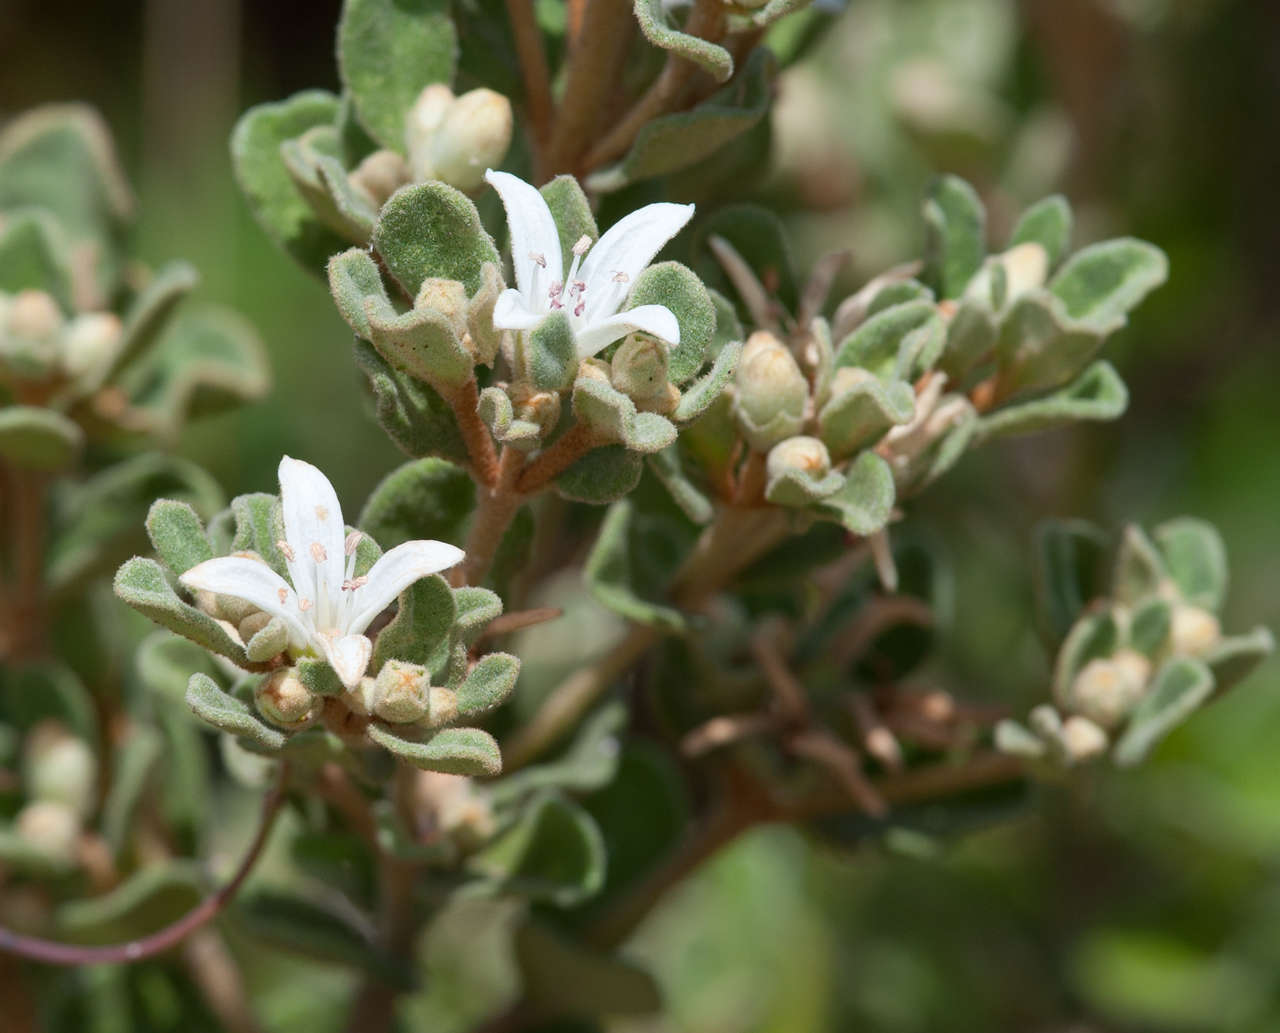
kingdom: Plantae
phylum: Tracheophyta
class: Magnoliopsida
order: Sapindales
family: Rutaceae
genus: Correa
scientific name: Correa alba
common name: White correa
